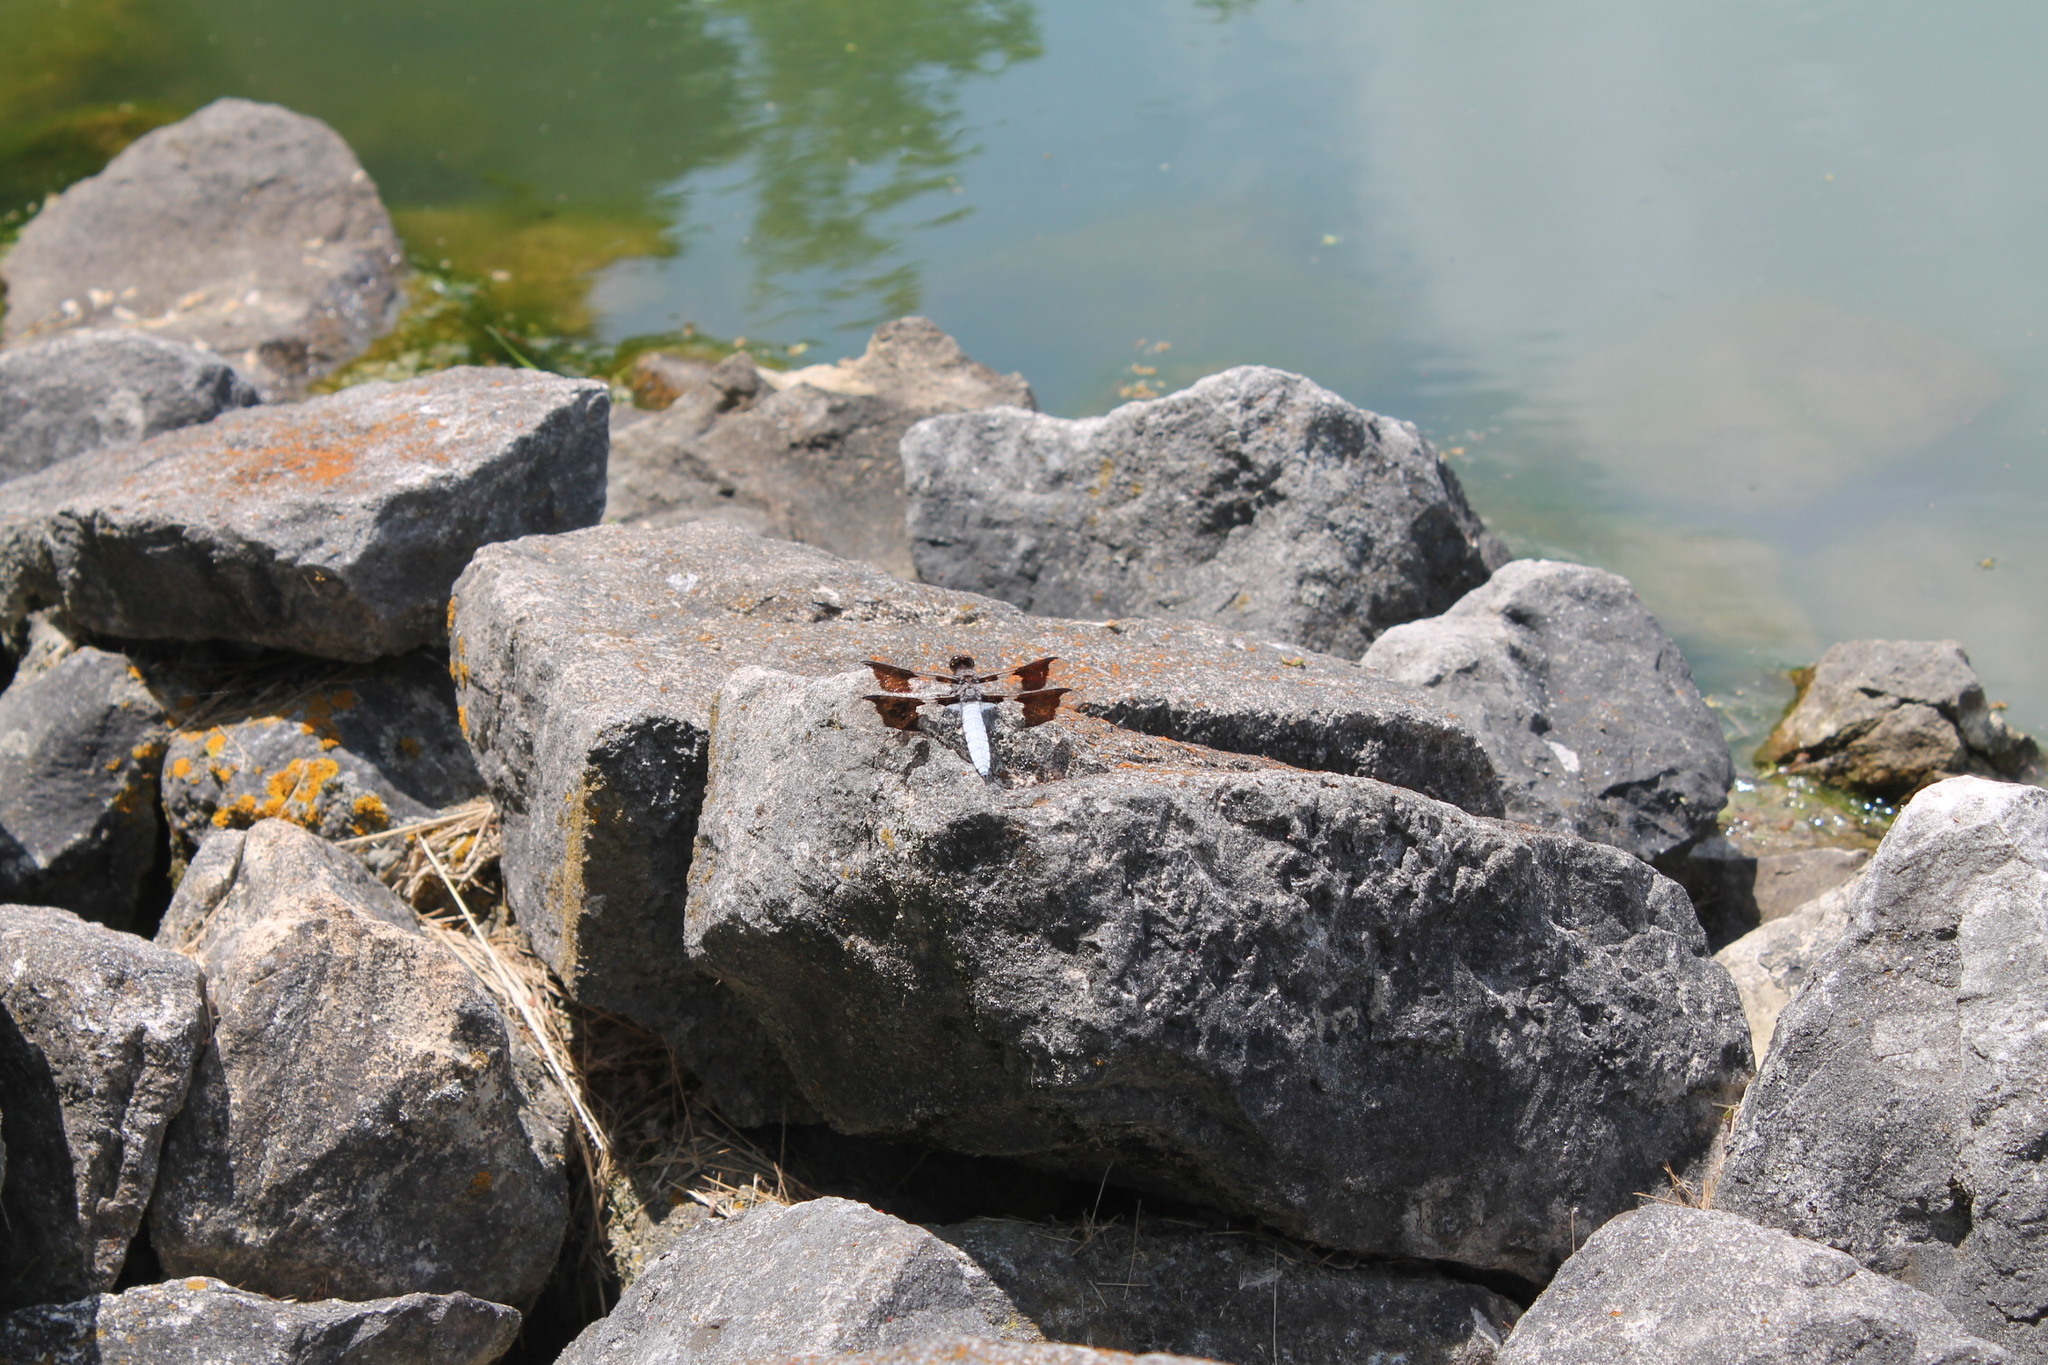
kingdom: Animalia
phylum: Arthropoda
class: Insecta
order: Odonata
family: Libellulidae
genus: Plathemis
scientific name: Plathemis lydia
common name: Common whitetail
